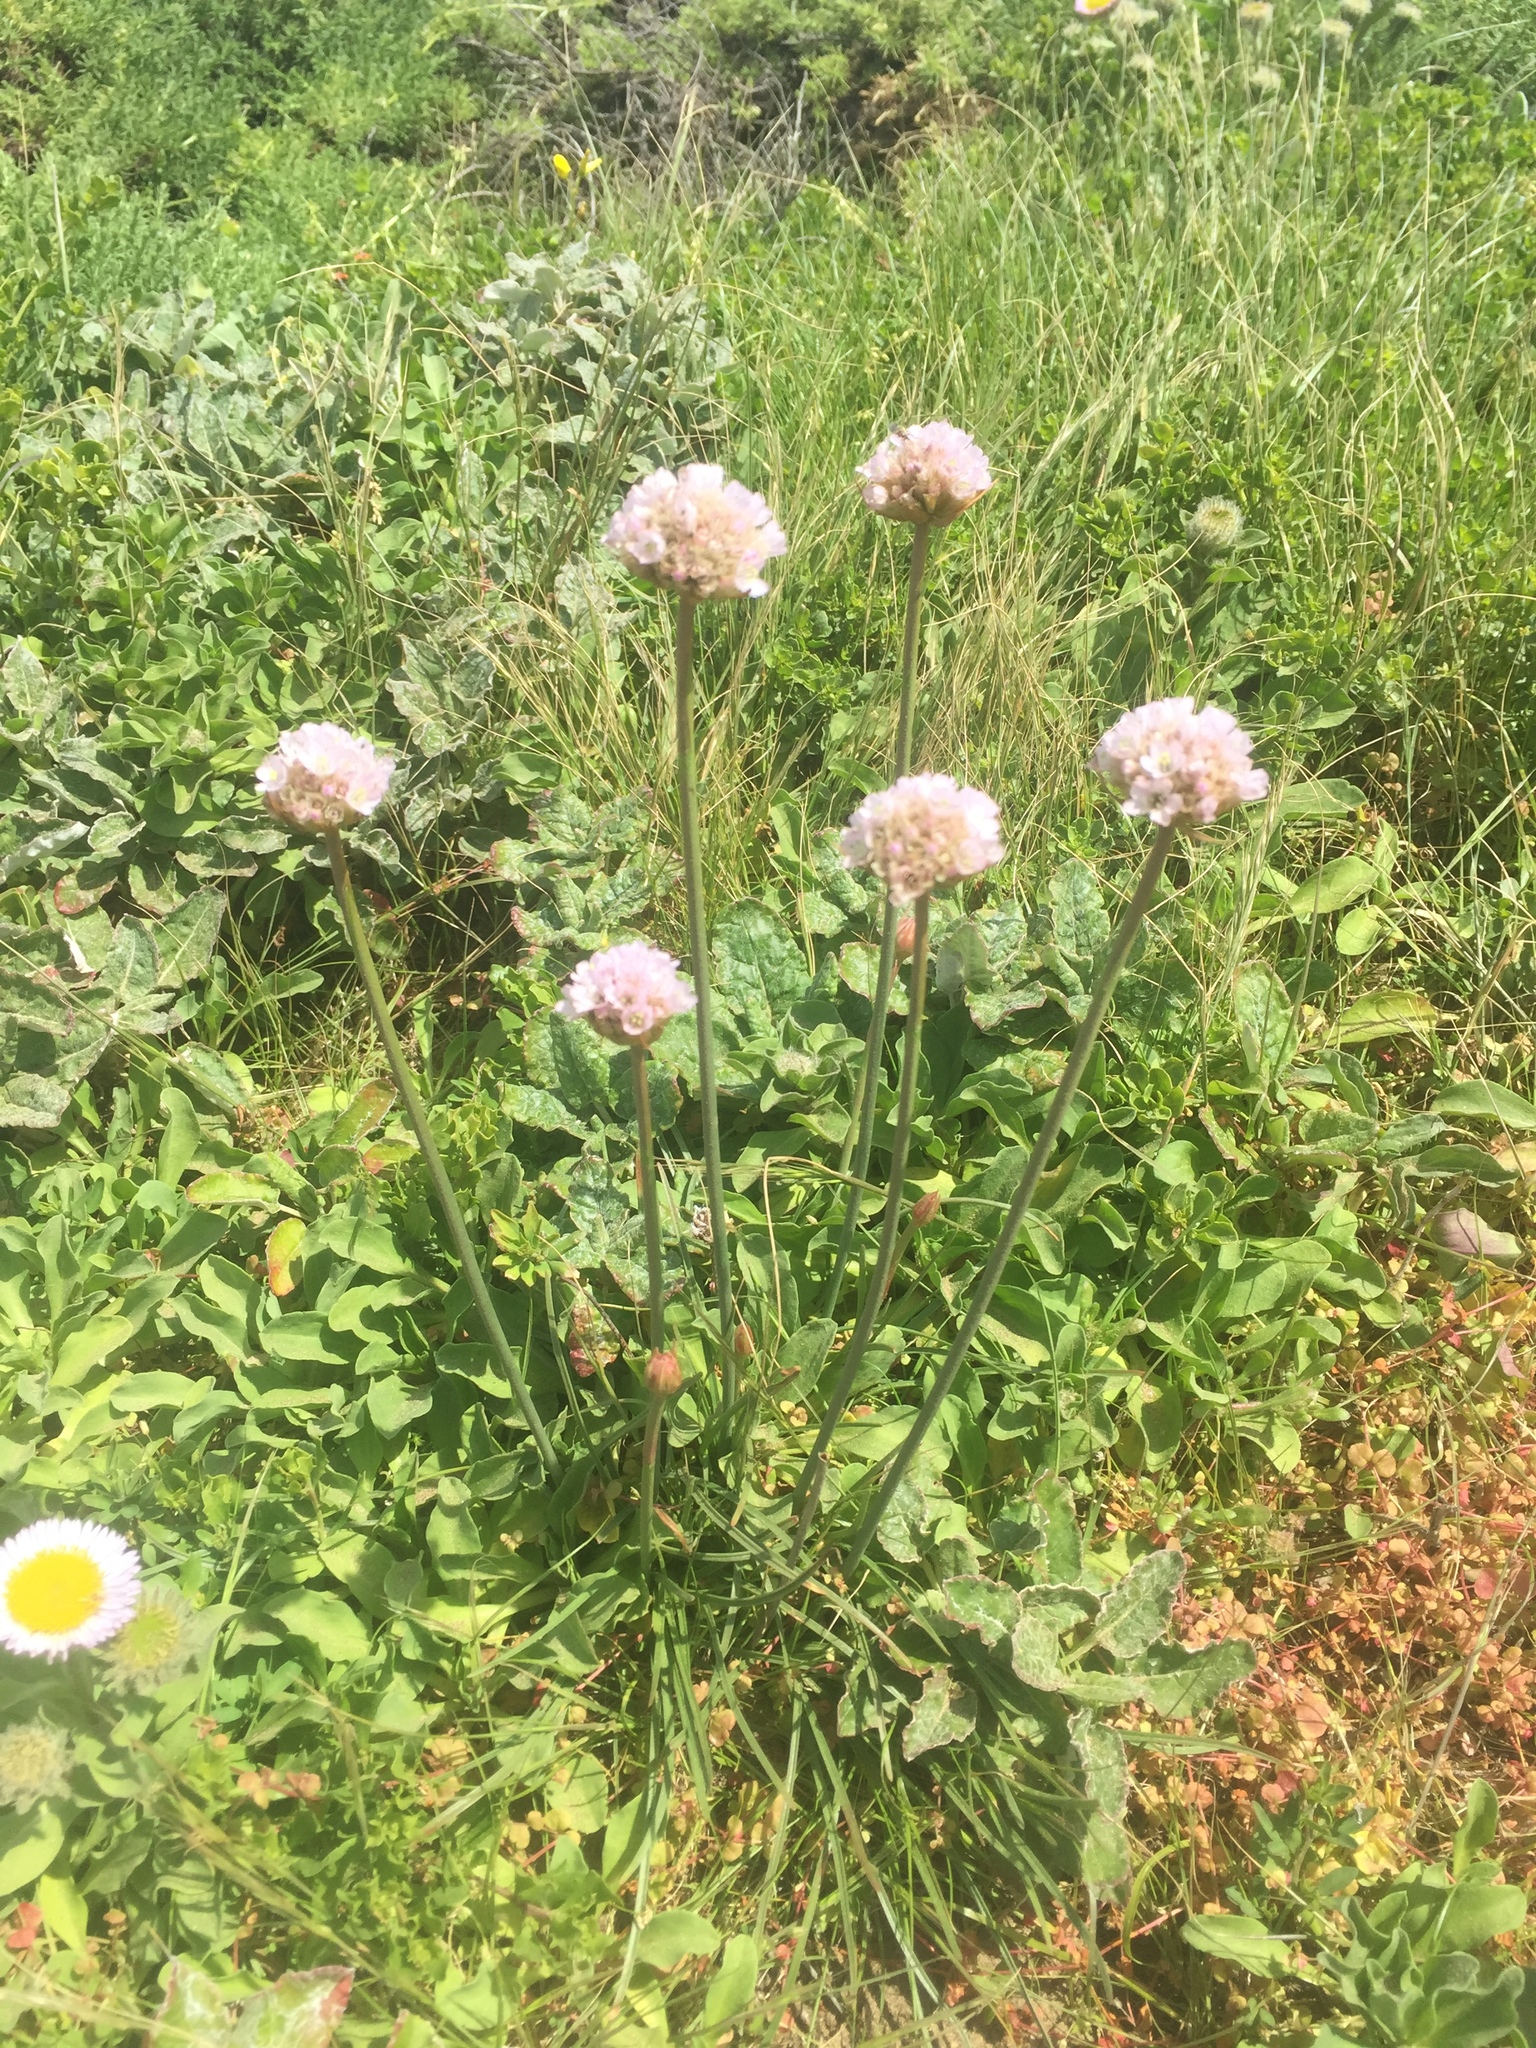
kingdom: Plantae
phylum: Tracheophyta
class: Magnoliopsida
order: Caryophyllales
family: Plumbaginaceae
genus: Armeria
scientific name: Armeria maritima
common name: Thrift
